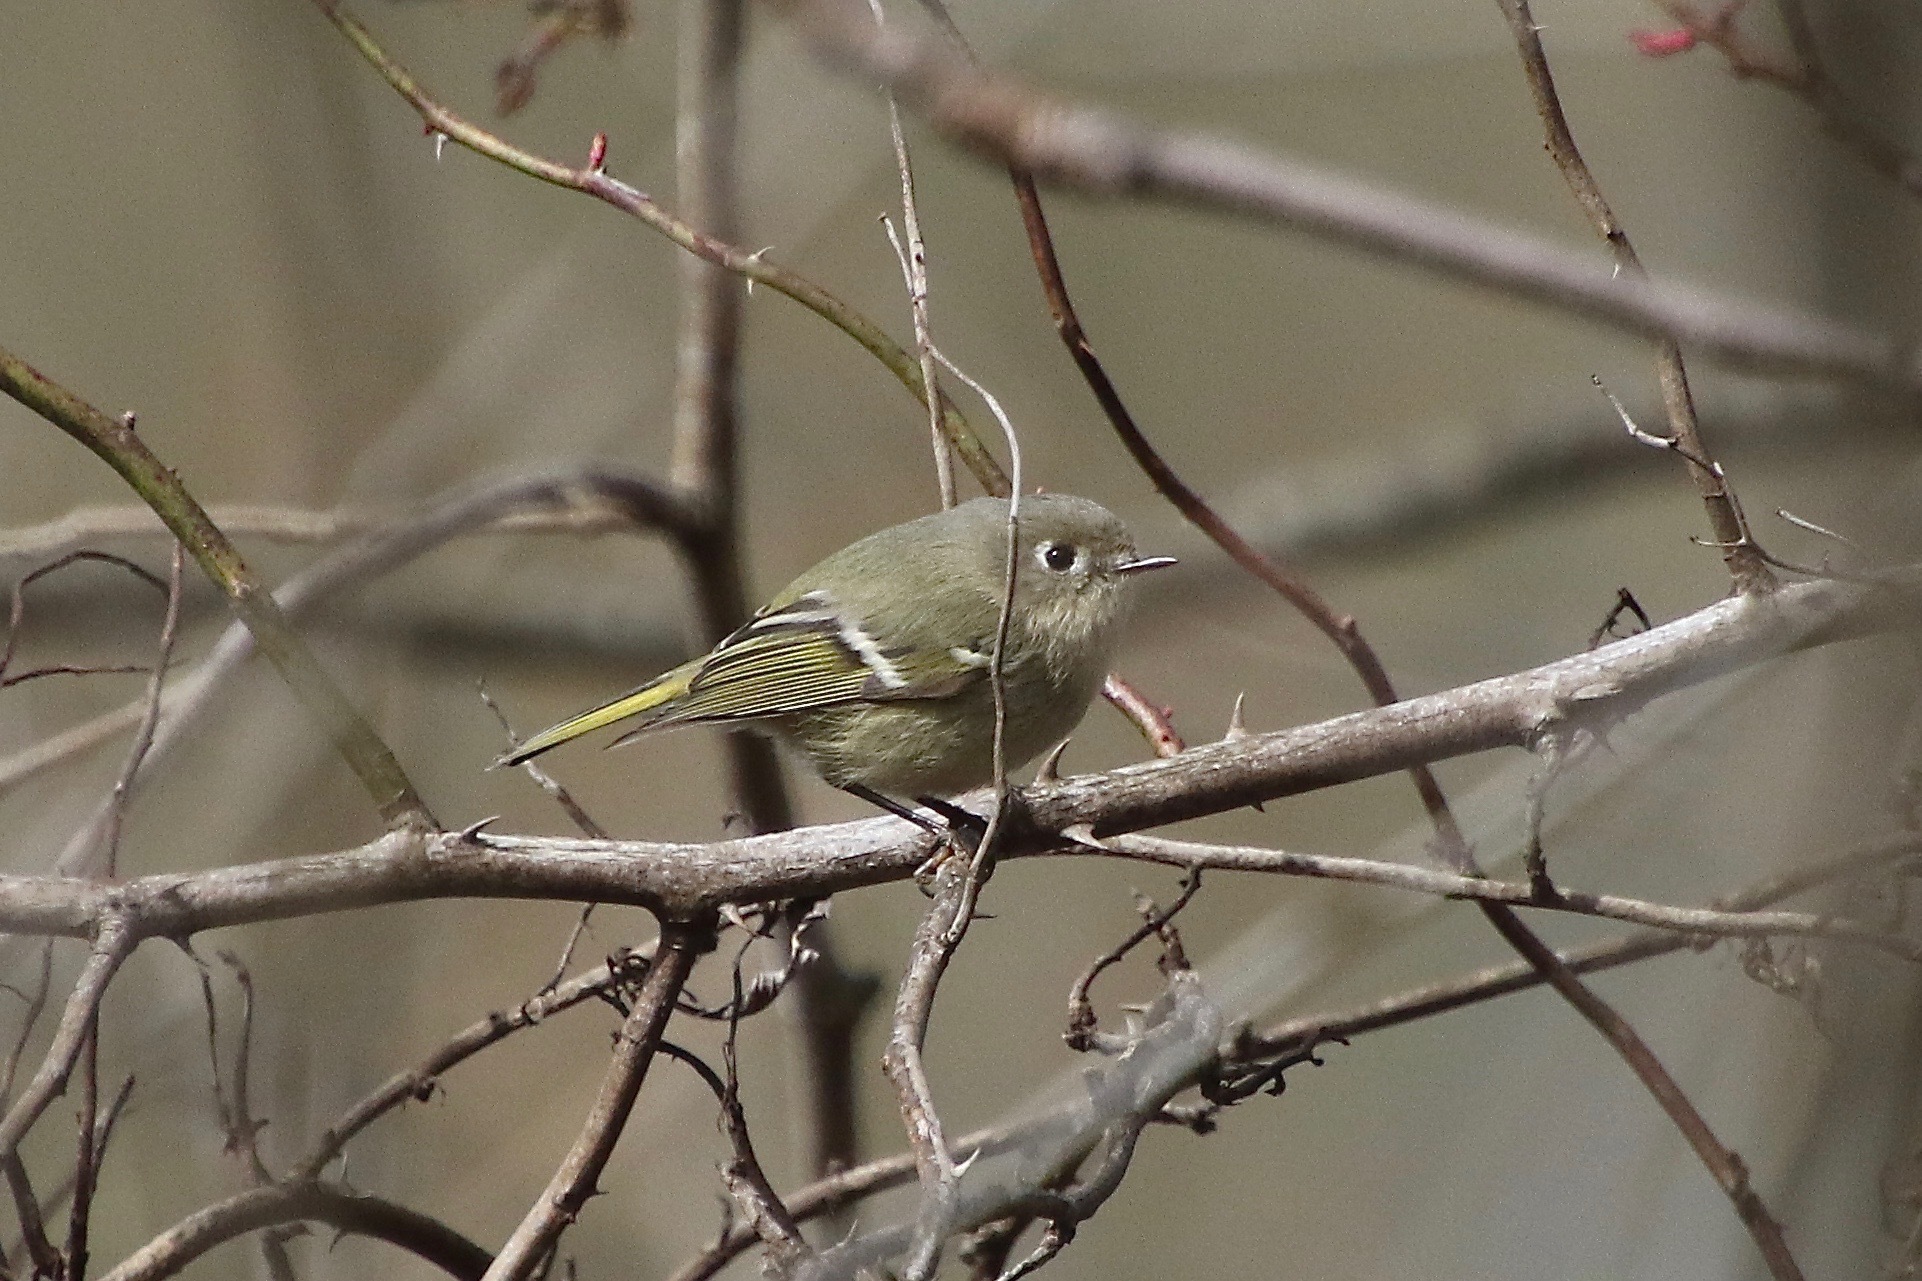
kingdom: Animalia
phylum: Chordata
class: Aves
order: Passeriformes
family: Regulidae
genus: Regulus
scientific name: Regulus calendula
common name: Ruby-crowned kinglet
